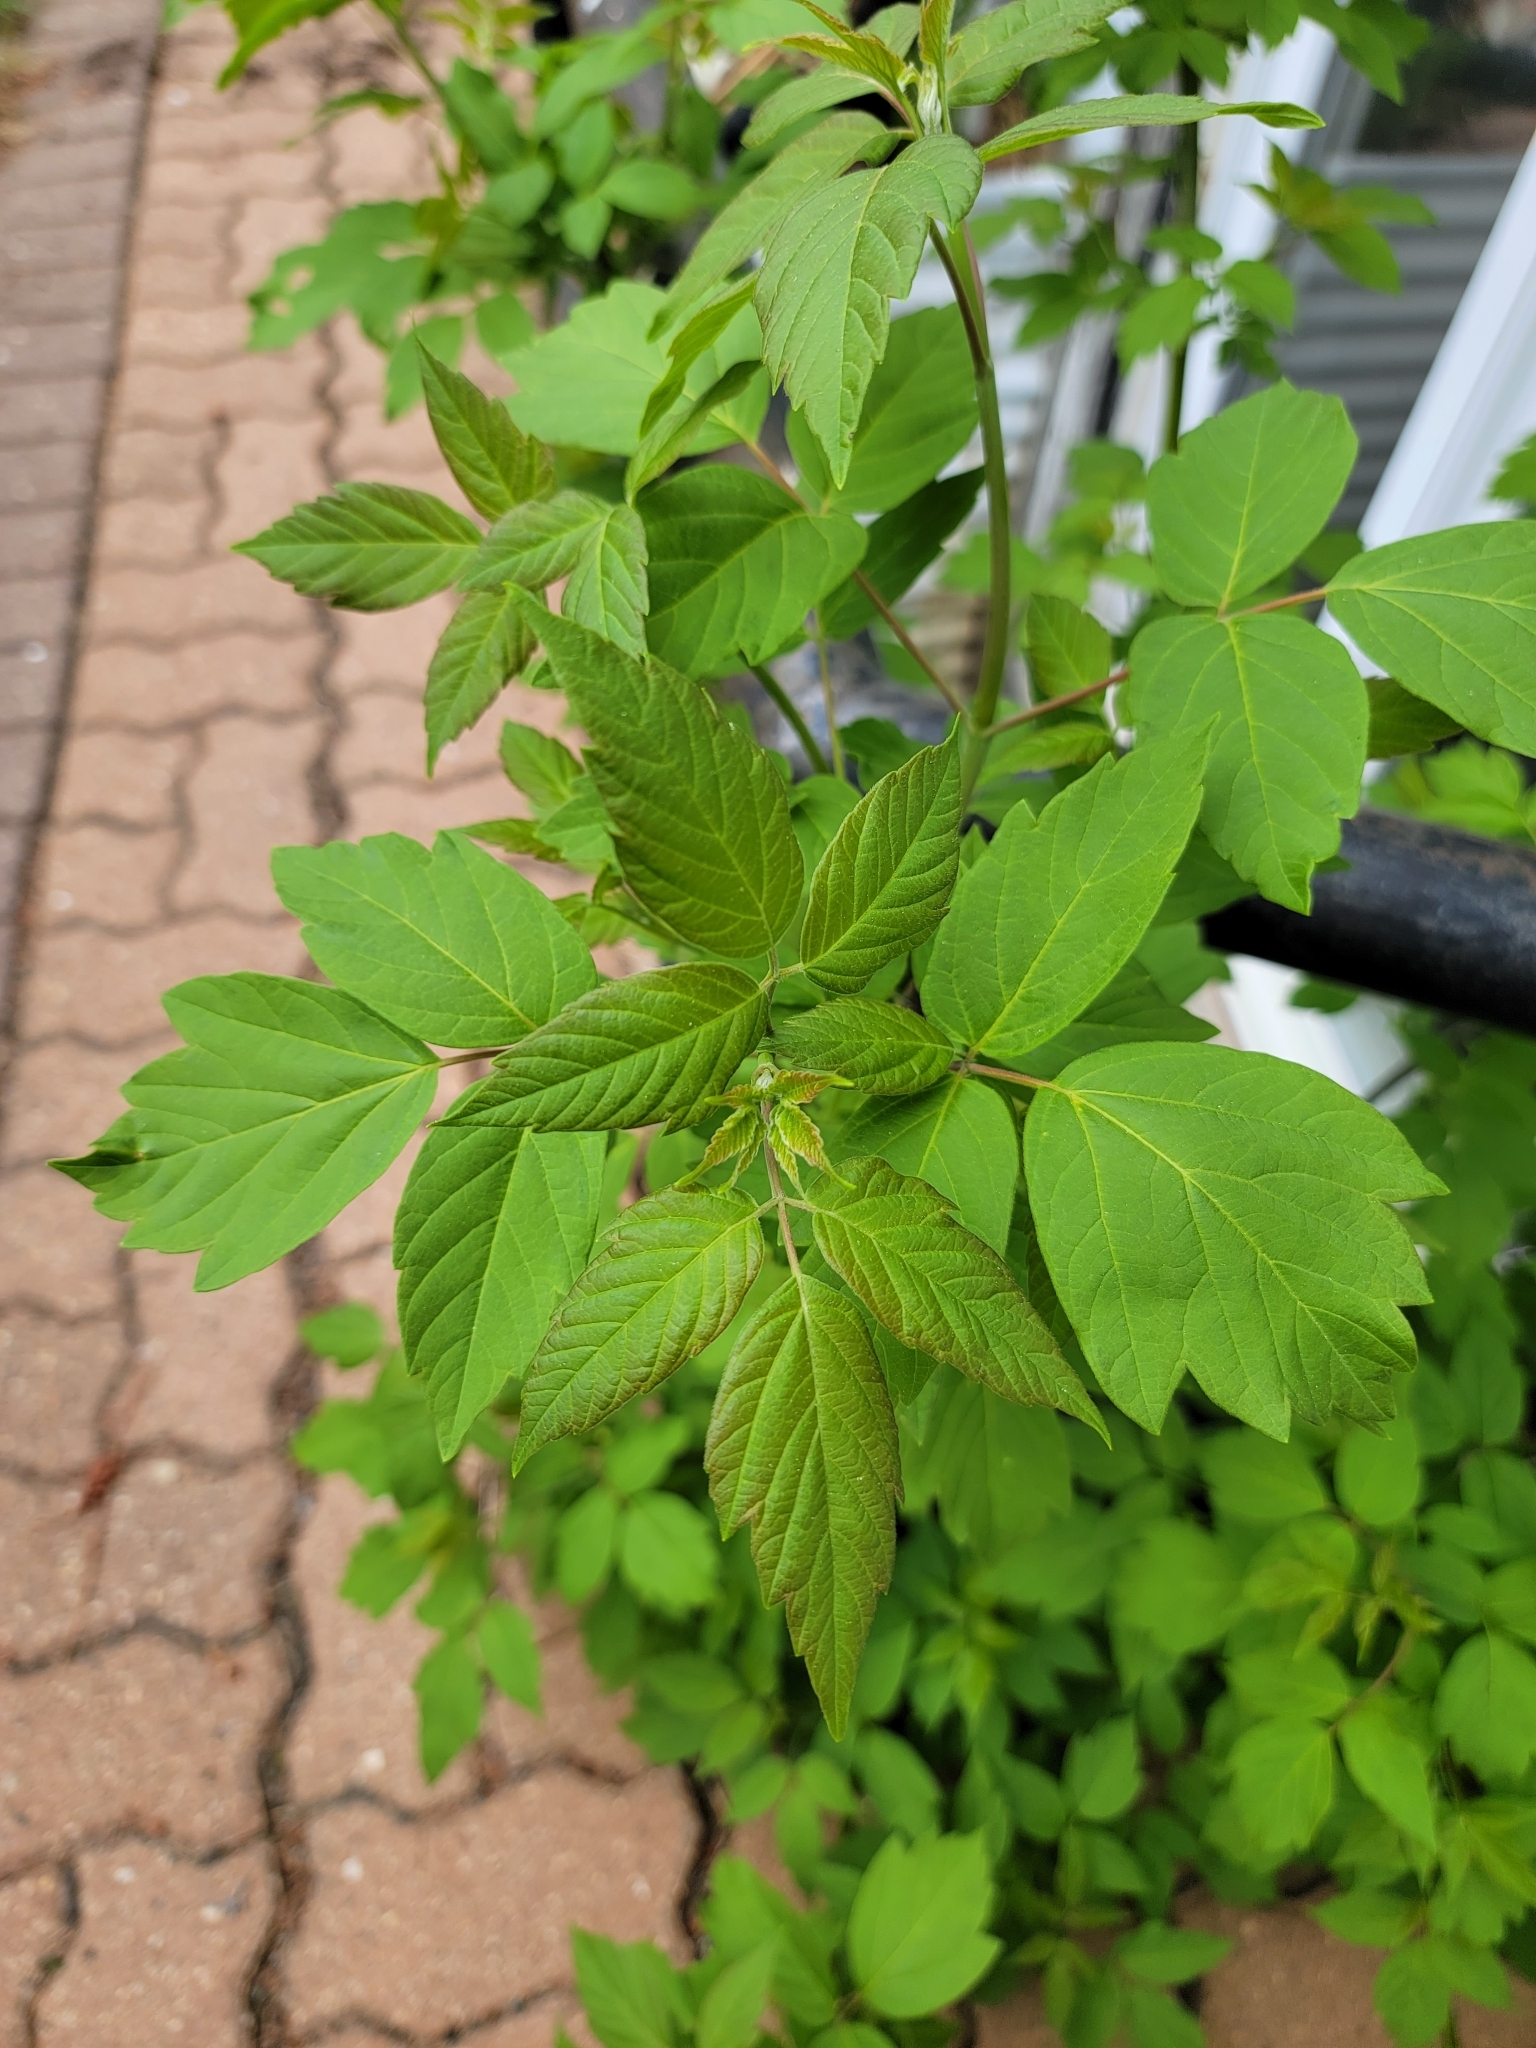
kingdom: Plantae
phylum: Tracheophyta
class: Magnoliopsida
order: Sapindales
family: Sapindaceae
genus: Acer
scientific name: Acer negundo
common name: Ashleaf maple
